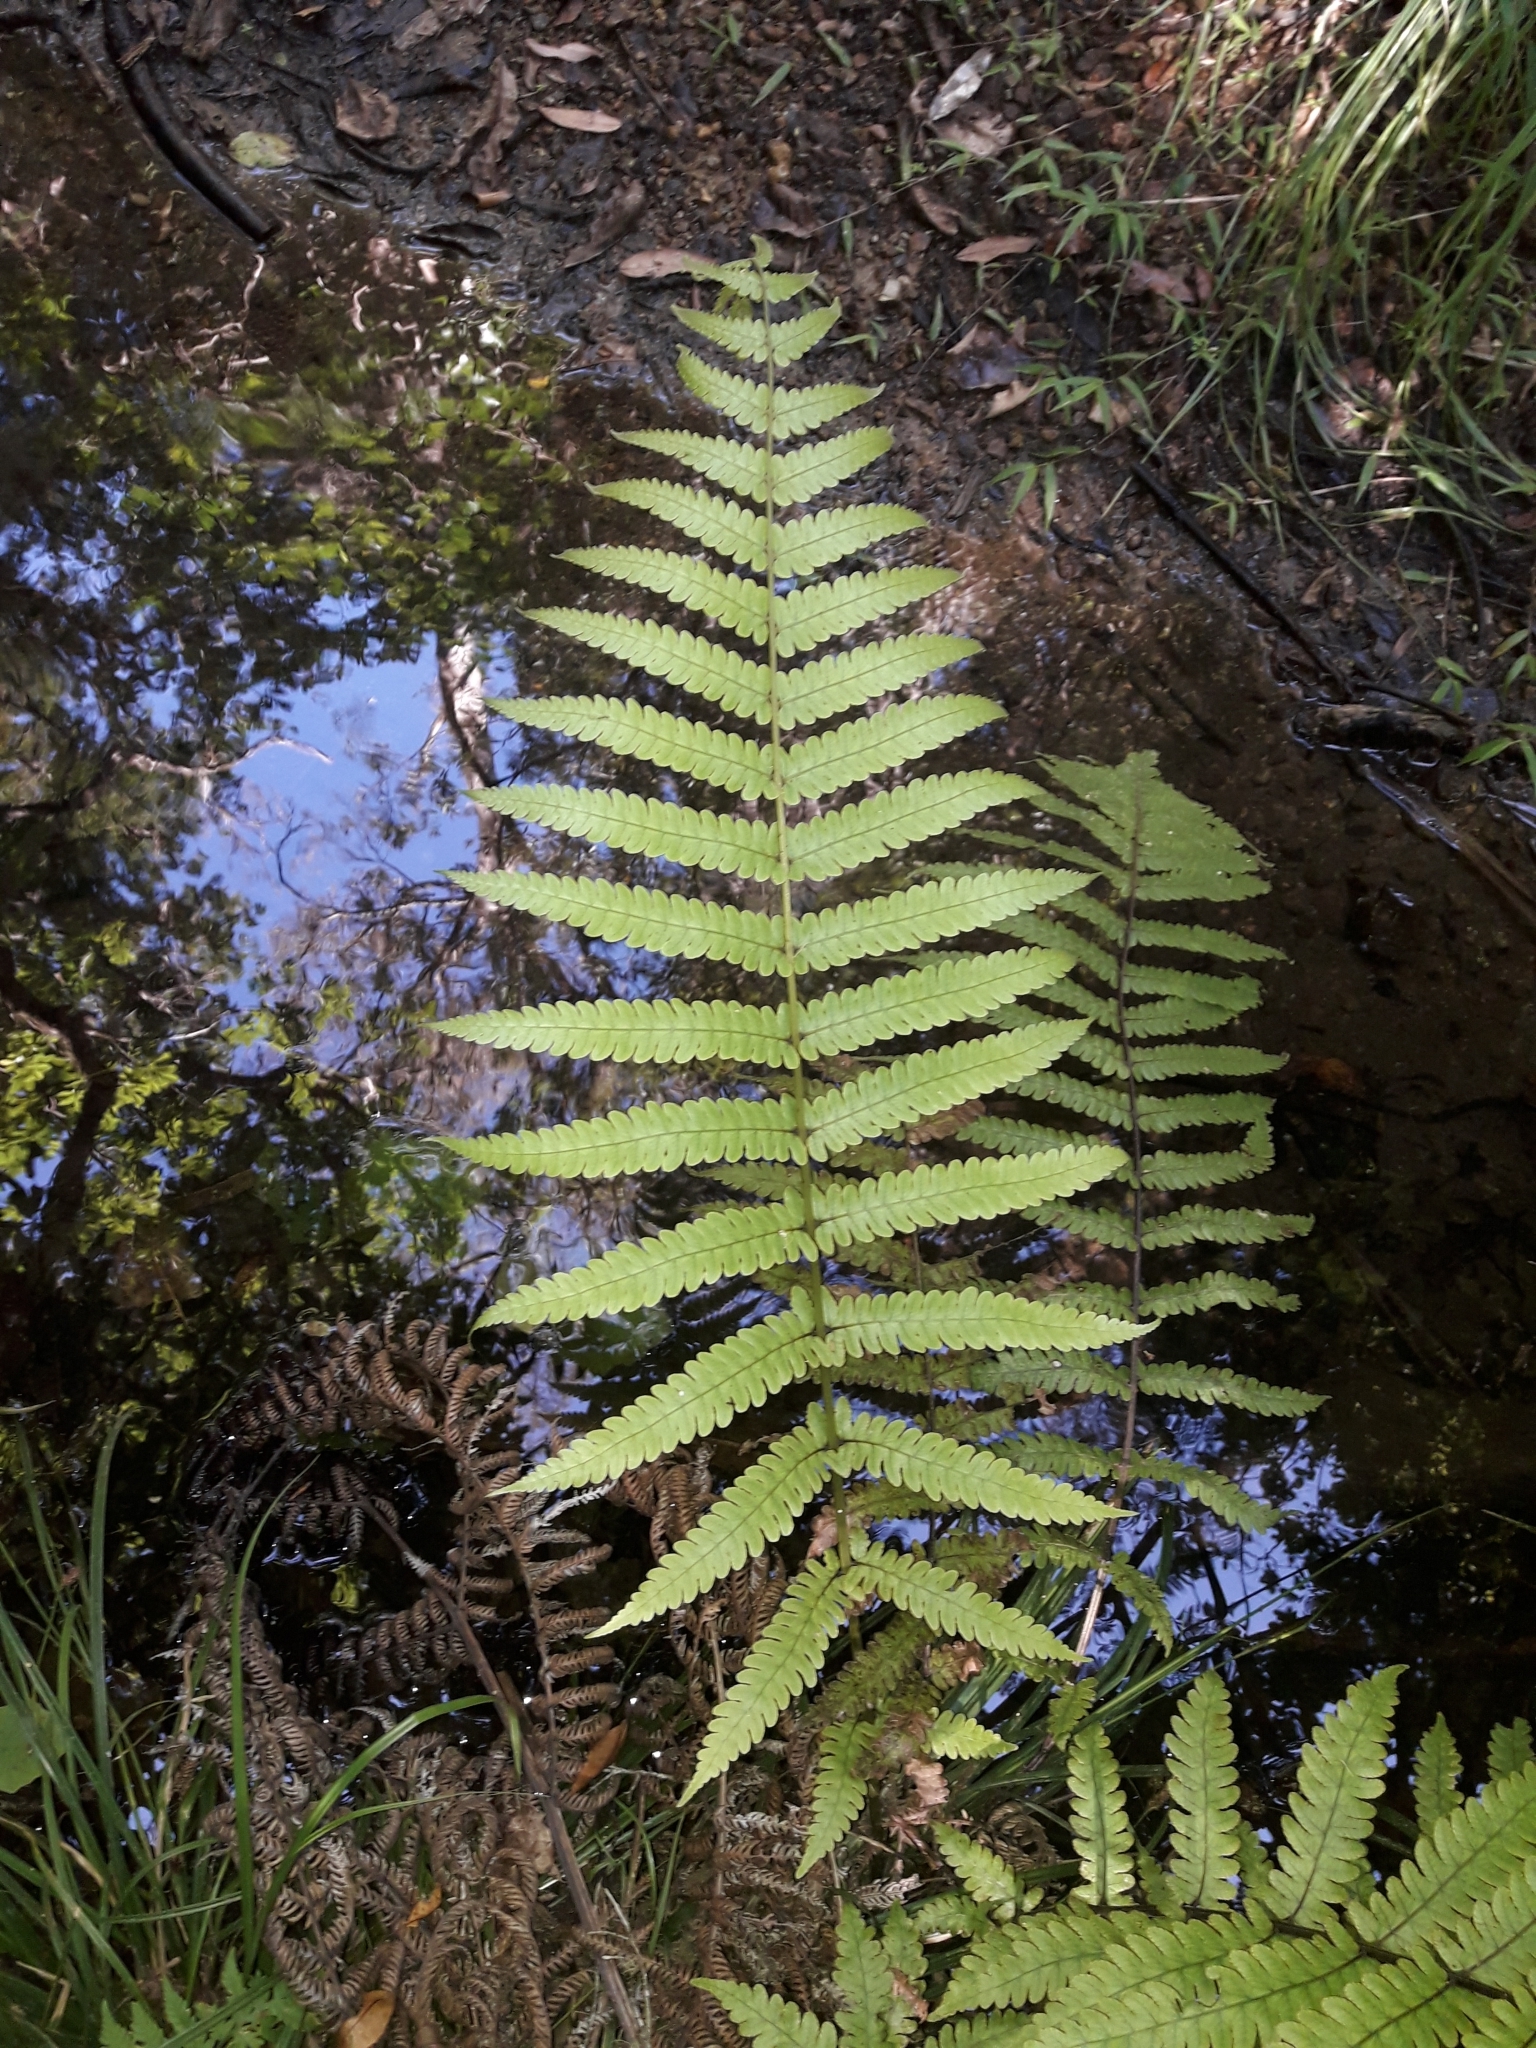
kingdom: Plantae
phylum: Tracheophyta
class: Polypodiopsida
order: Polypodiales
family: Thelypteridaceae
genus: Pakau
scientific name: Pakau pennigera
